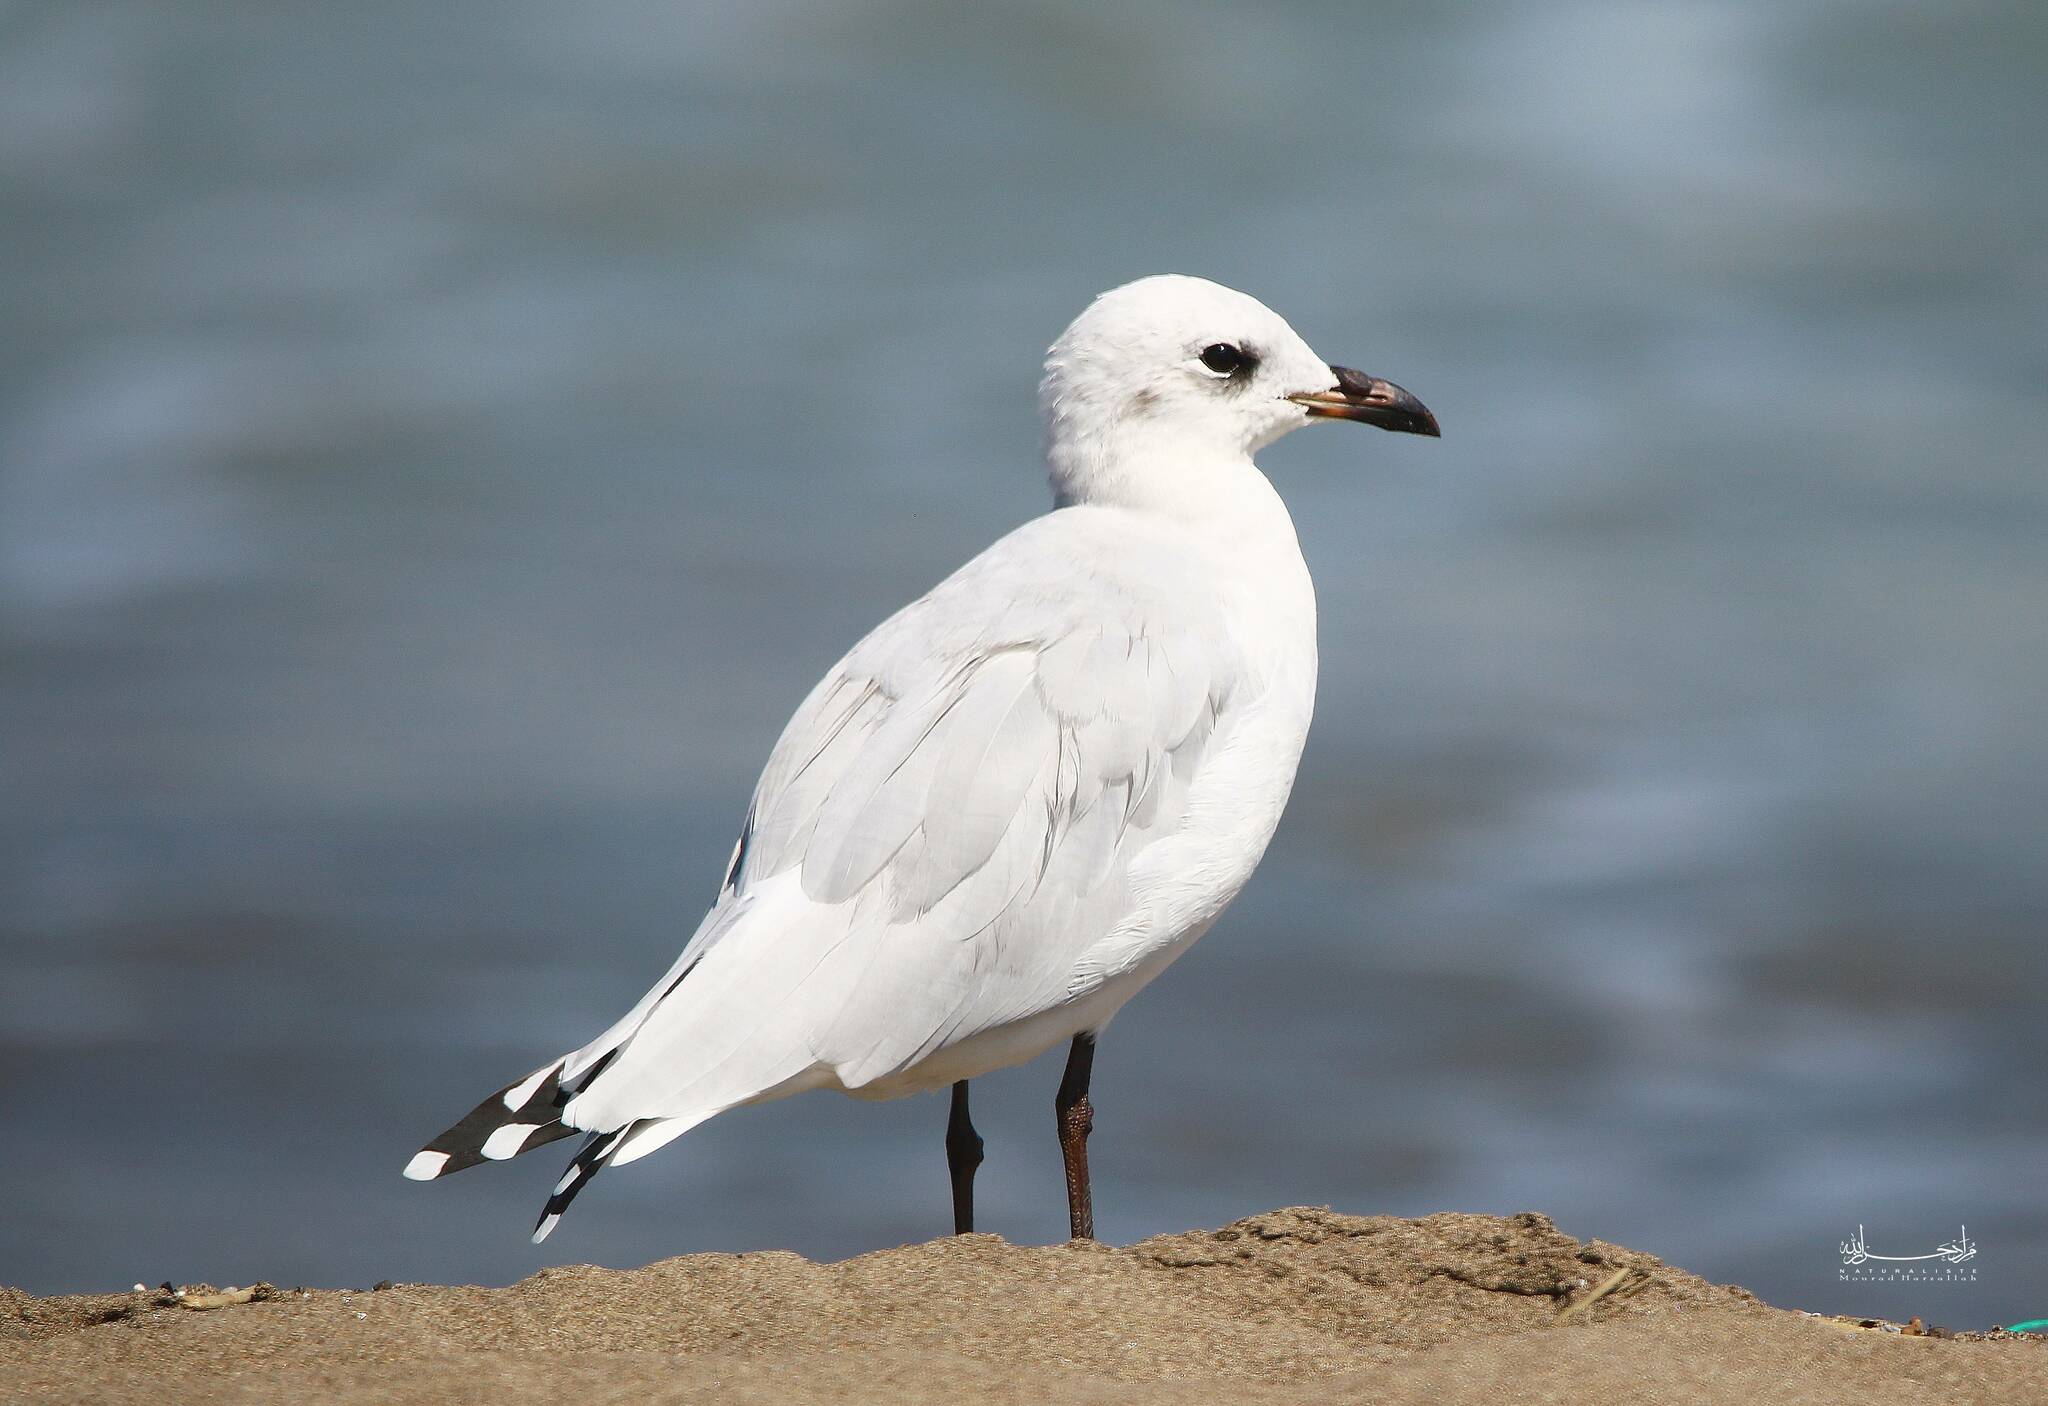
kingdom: Animalia
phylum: Chordata
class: Aves
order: Charadriiformes
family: Laridae
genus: Ichthyaetus
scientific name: Ichthyaetus melanocephalus
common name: Mediterranean gull
